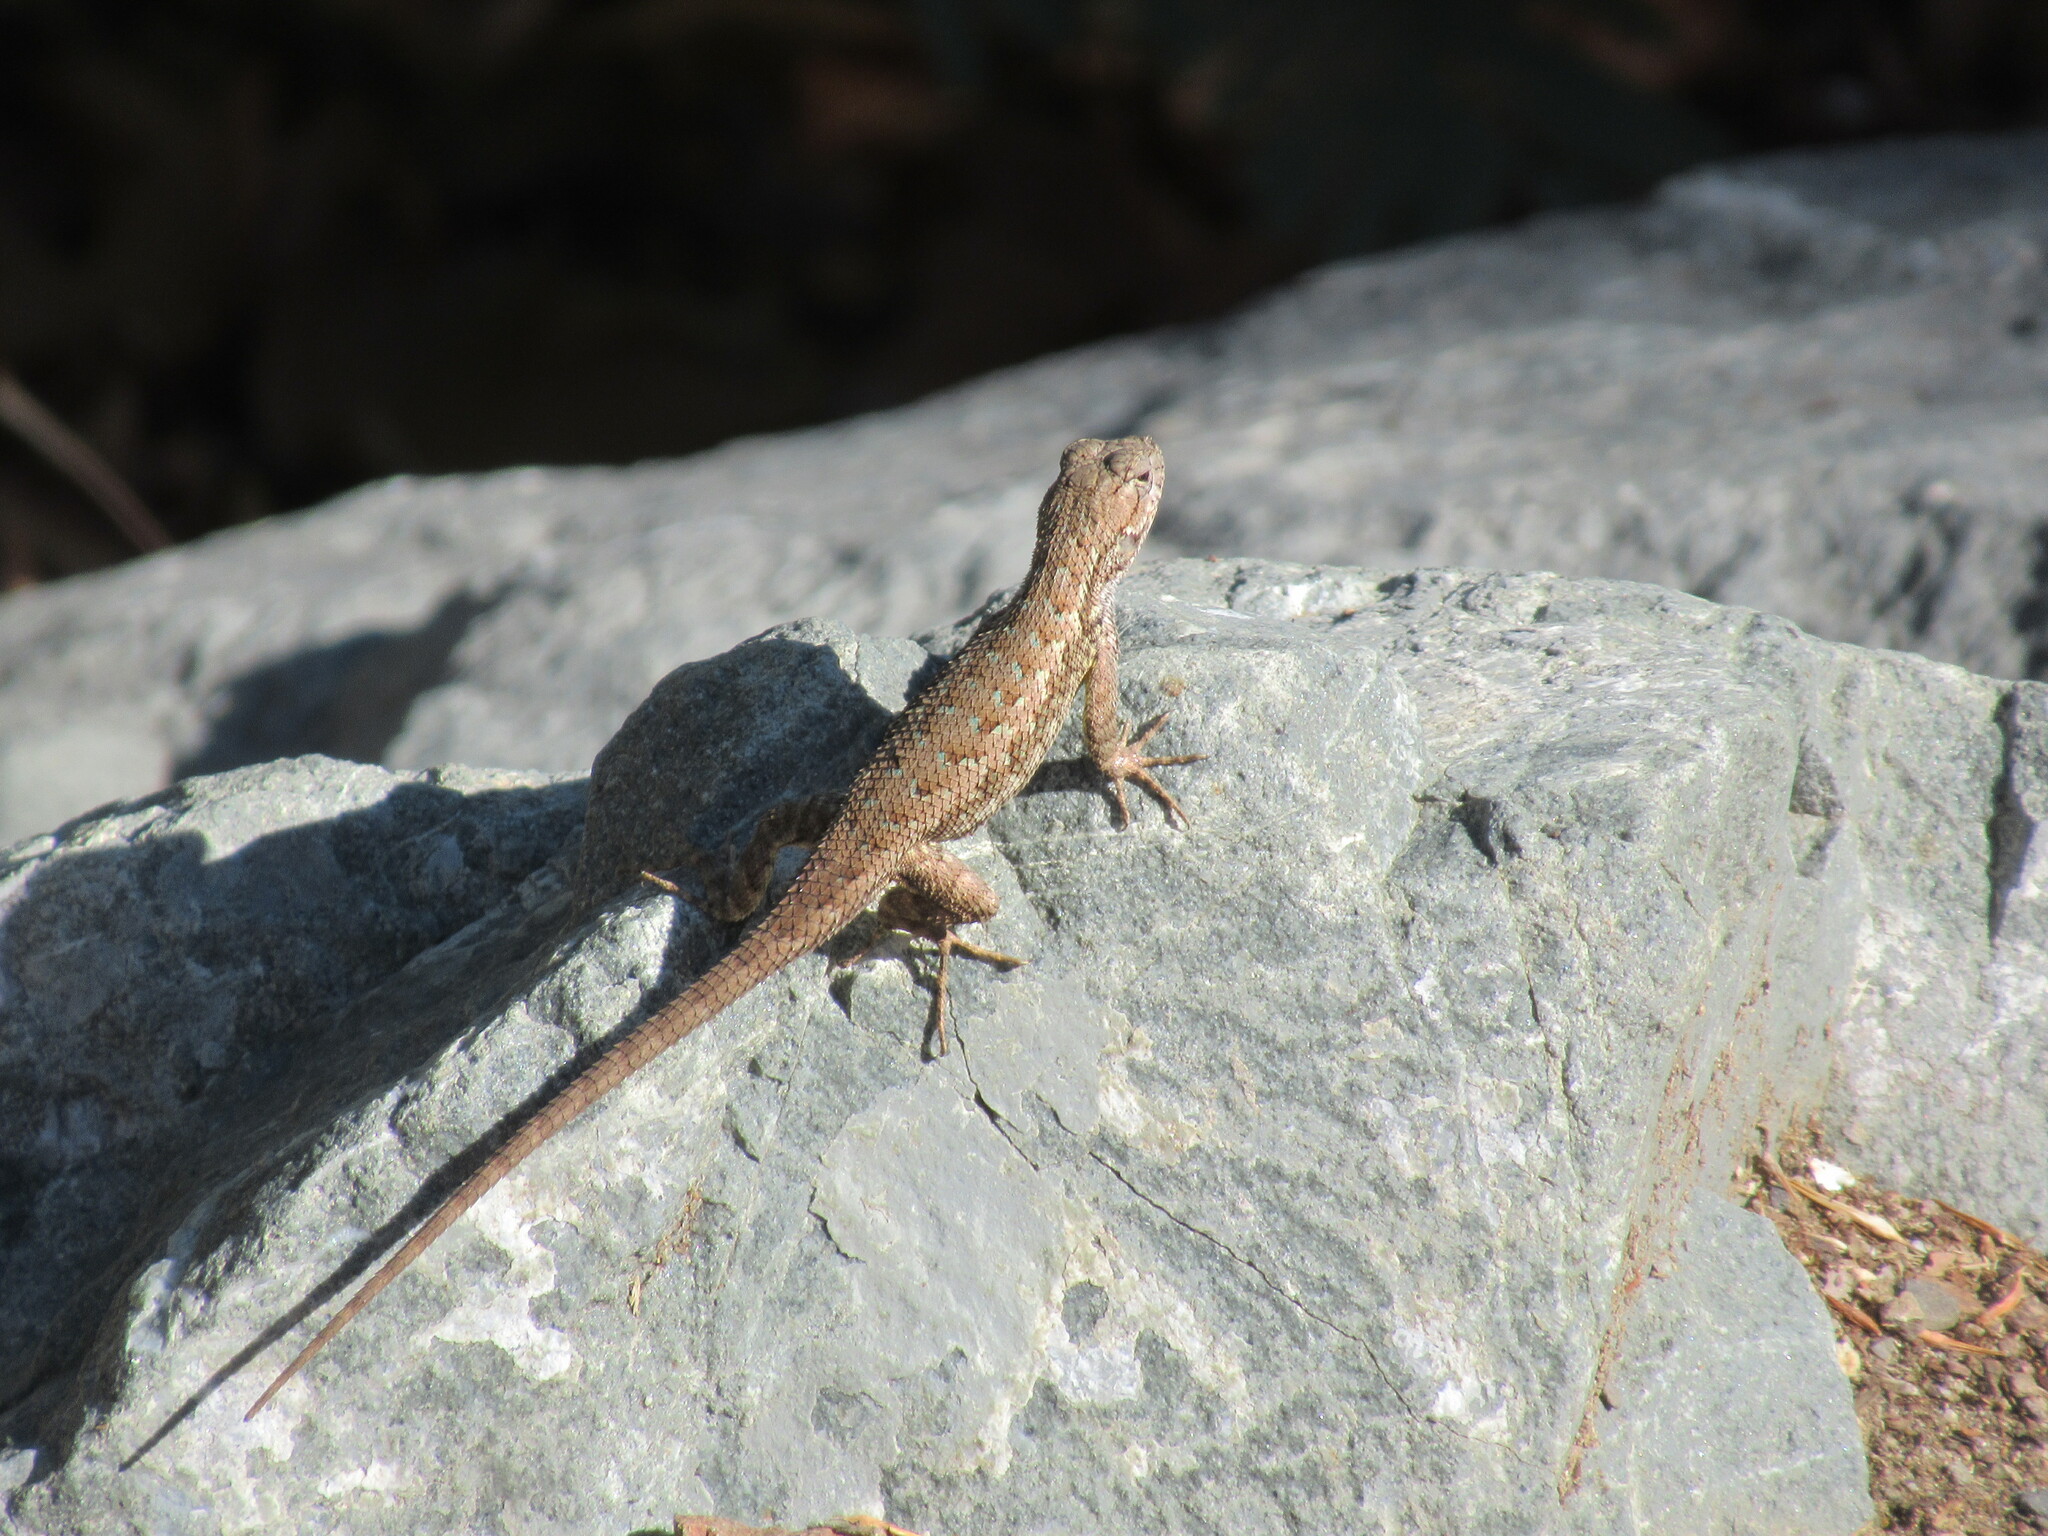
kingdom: Animalia
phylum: Chordata
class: Squamata
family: Phrynosomatidae
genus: Sceloporus
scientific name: Sceloporus occidentalis
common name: Western fence lizard
